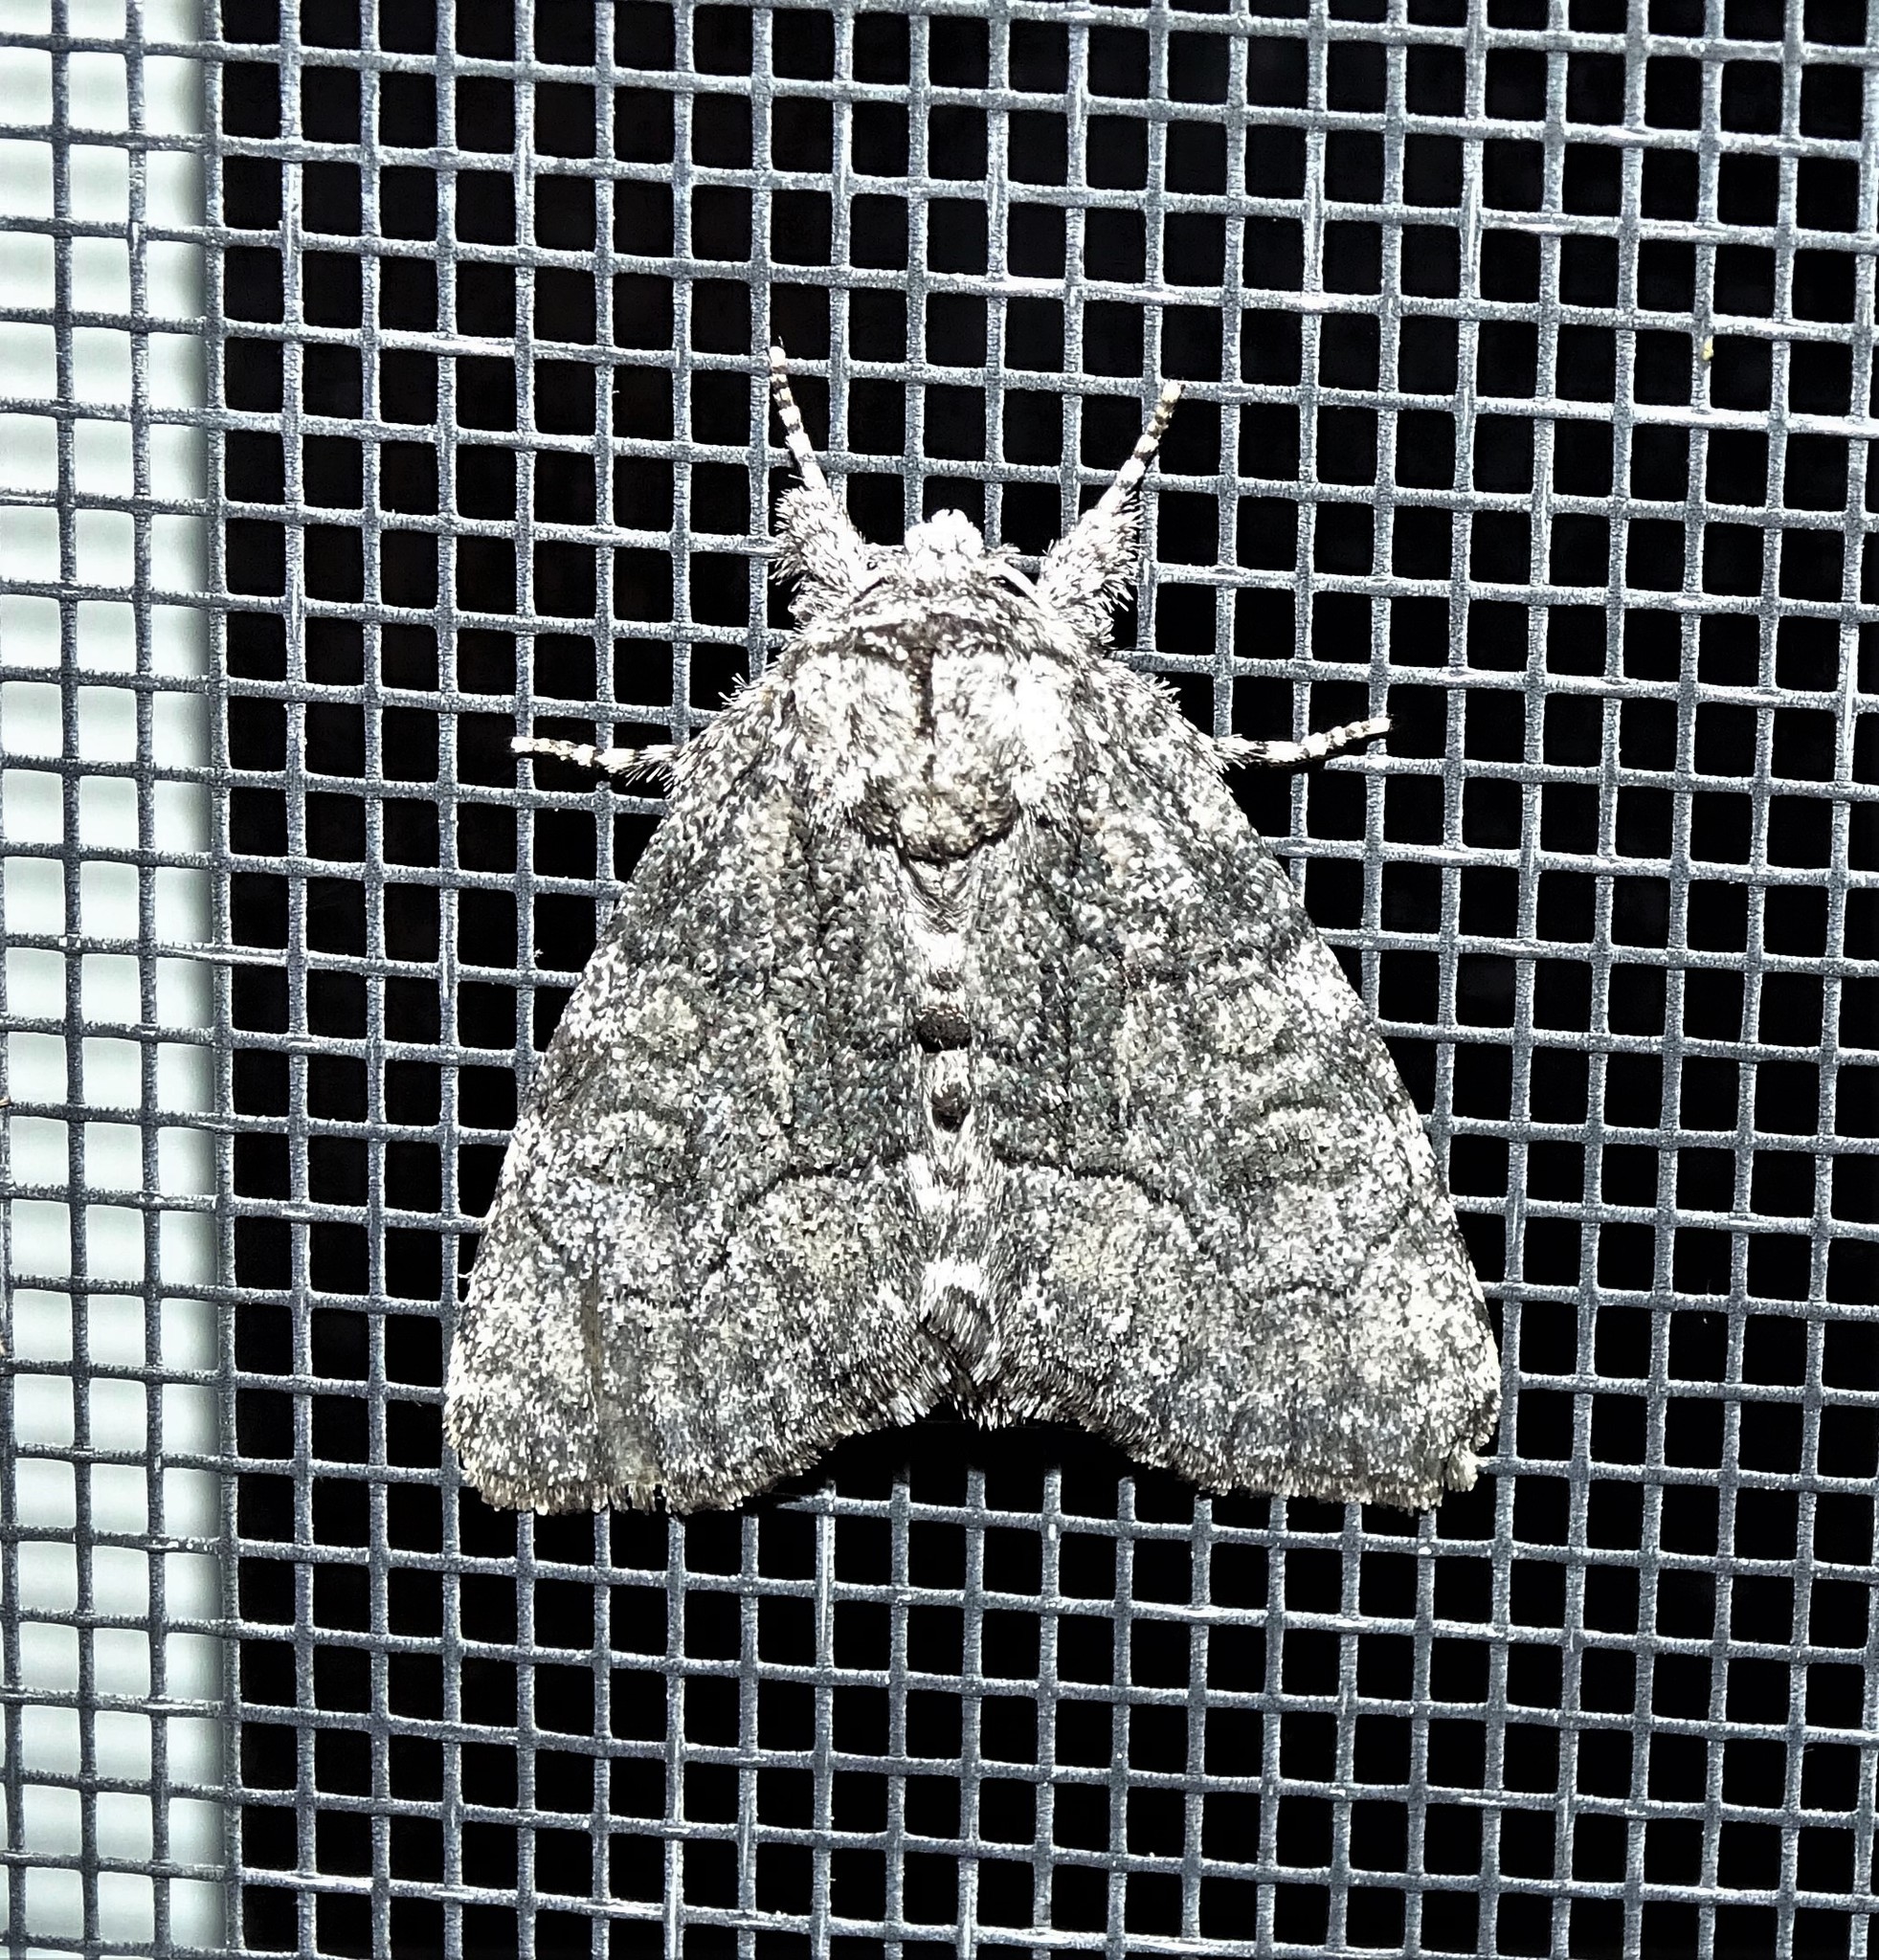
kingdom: Animalia
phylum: Arthropoda
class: Insecta
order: Lepidoptera
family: Noctuidae
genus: Raphia
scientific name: Raphia frater
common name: Brother
